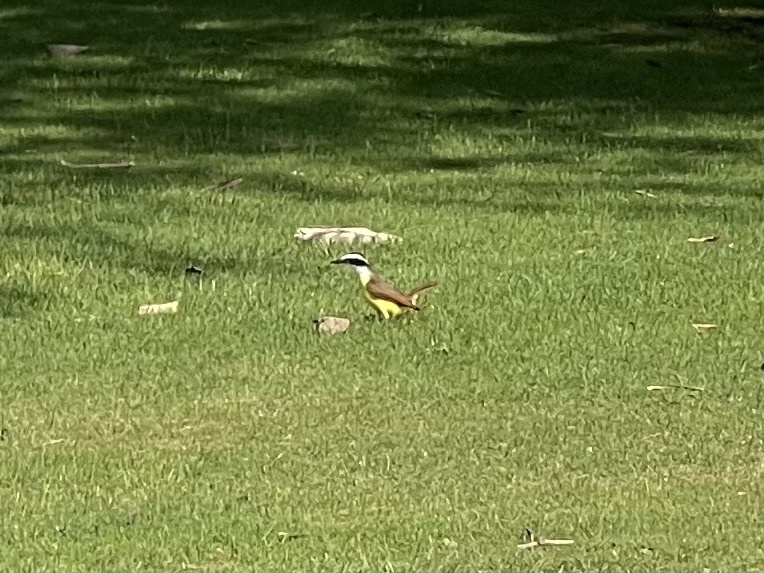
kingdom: Animalia
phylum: Chordata
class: Aves
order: Passeriformes
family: Tyrannidae
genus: Pitangus
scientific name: Pitangus sulphuratus
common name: Great kiskadee
